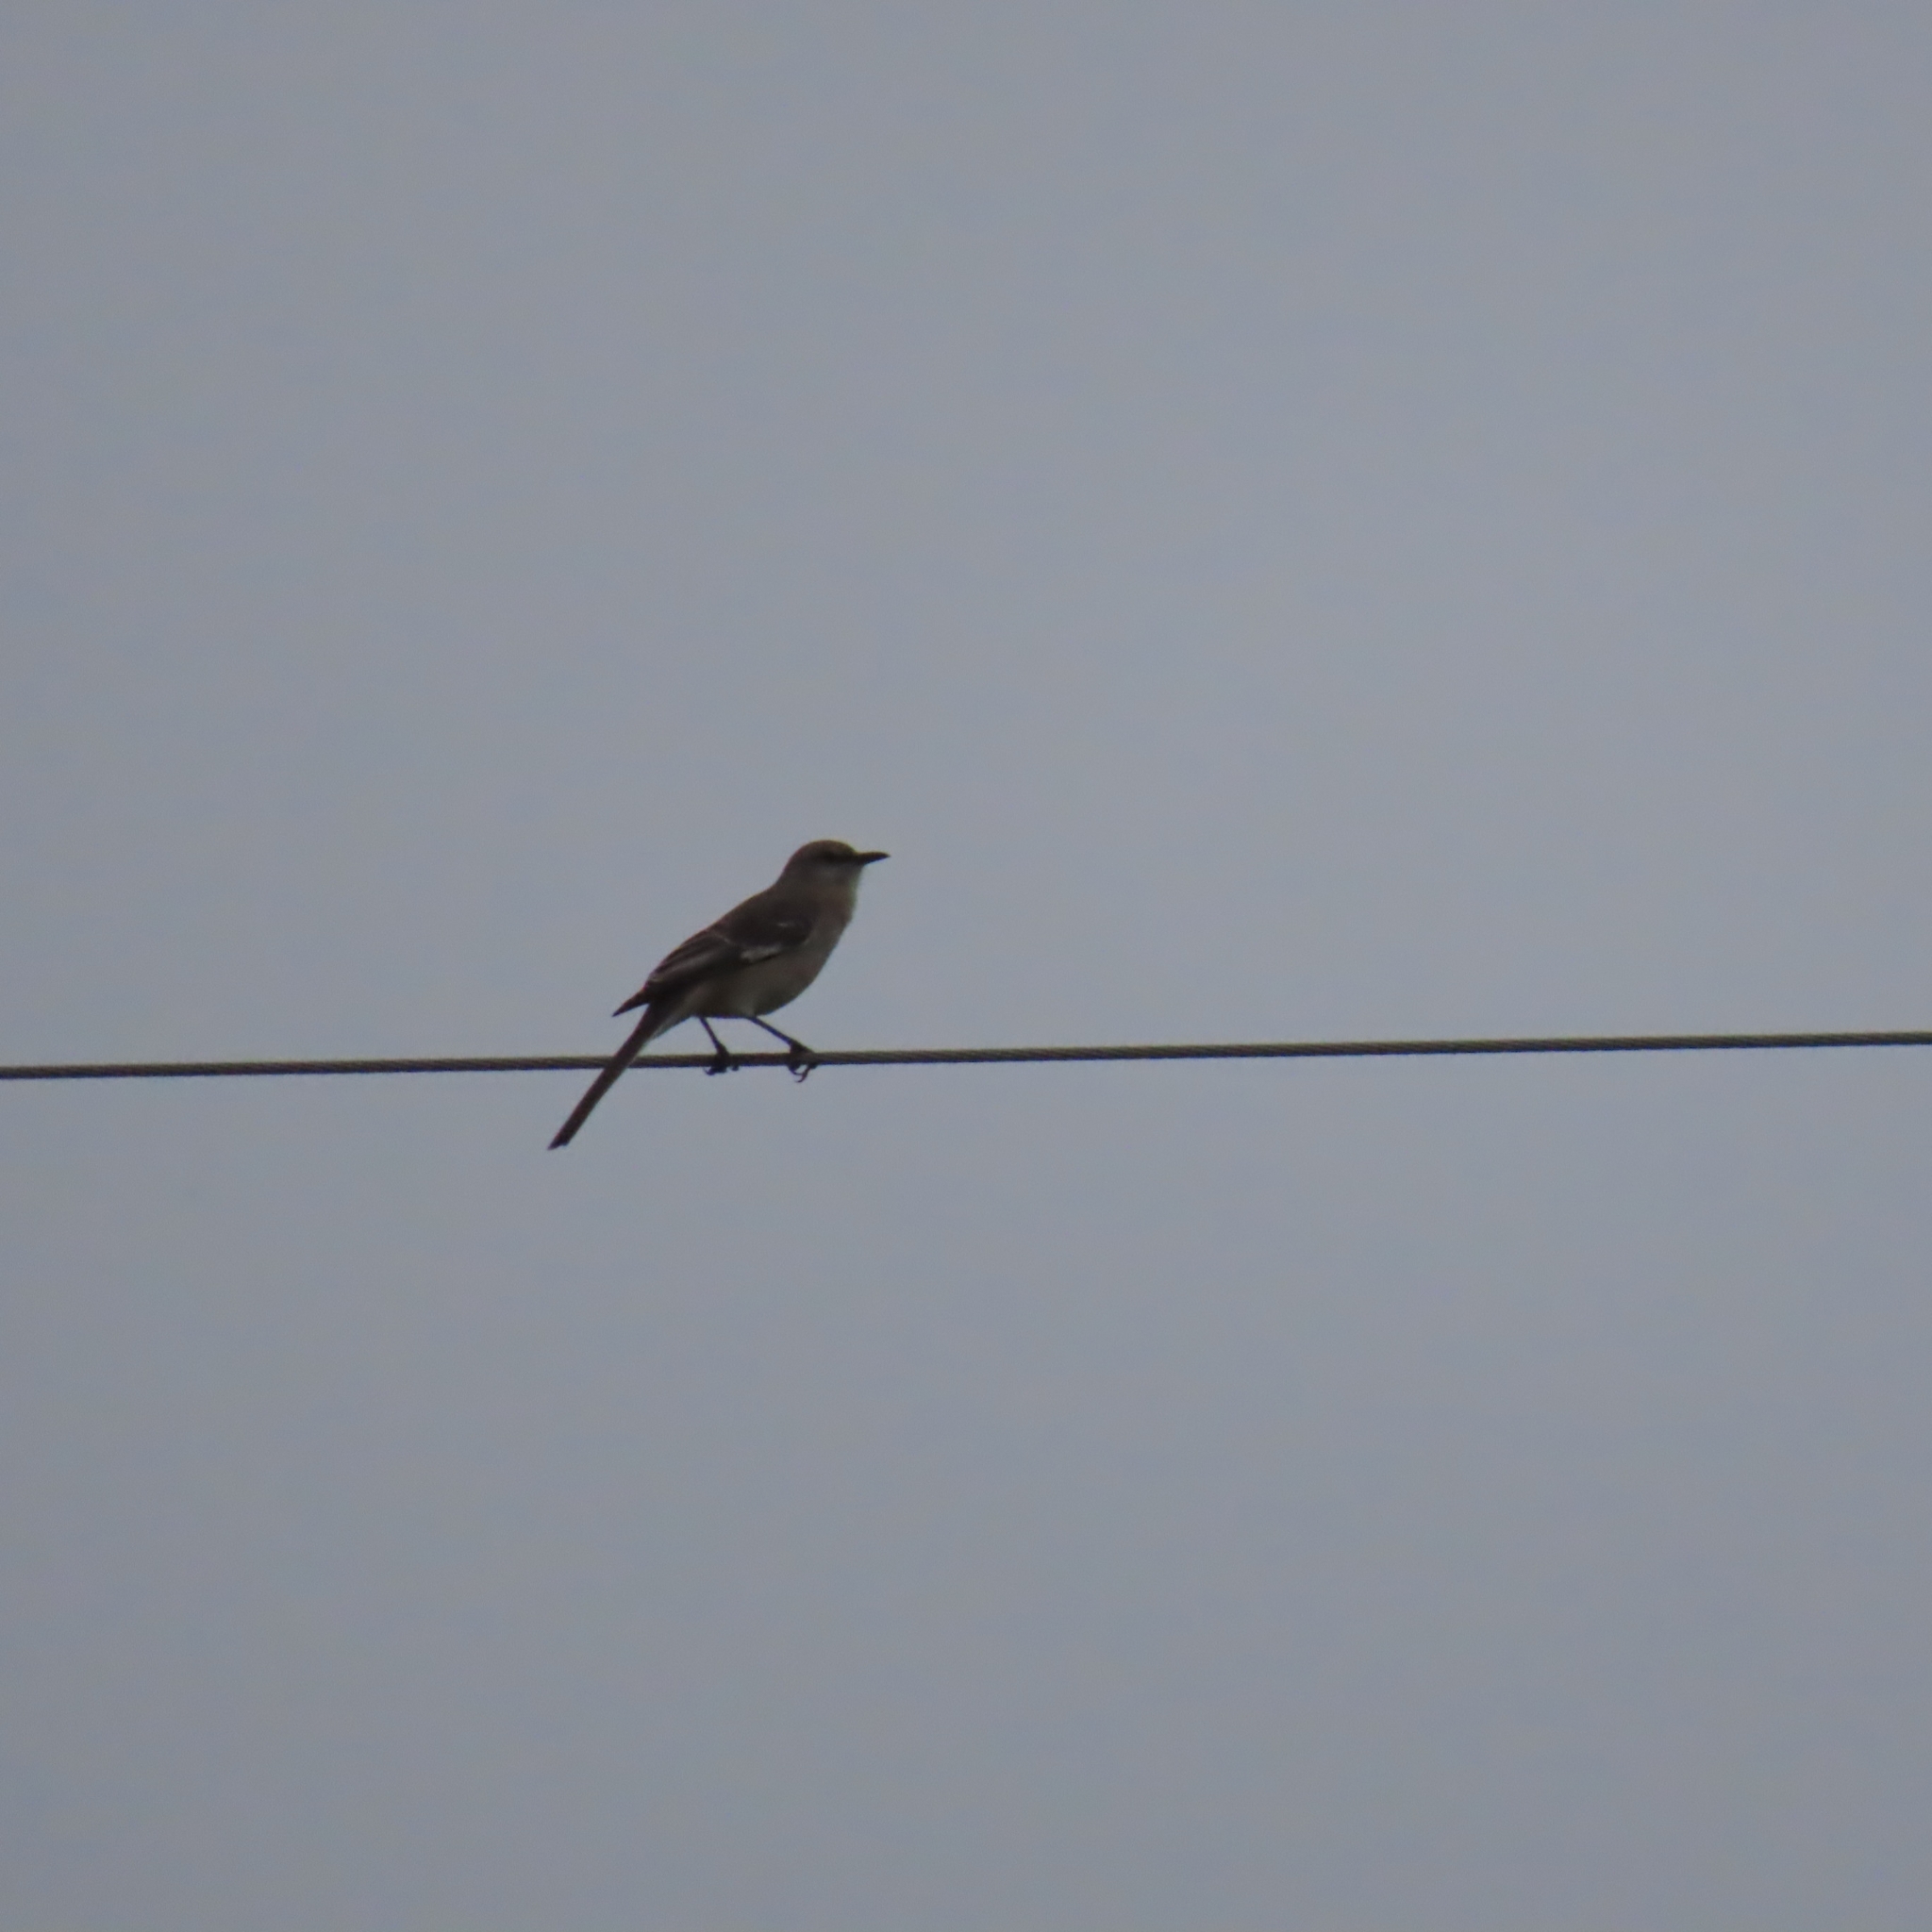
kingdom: Animalia
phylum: Chordata
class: Aves
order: Passeriformes
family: Mimidae
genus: Mimus
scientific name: Mimus polyglottos
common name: Northern mockingbird
